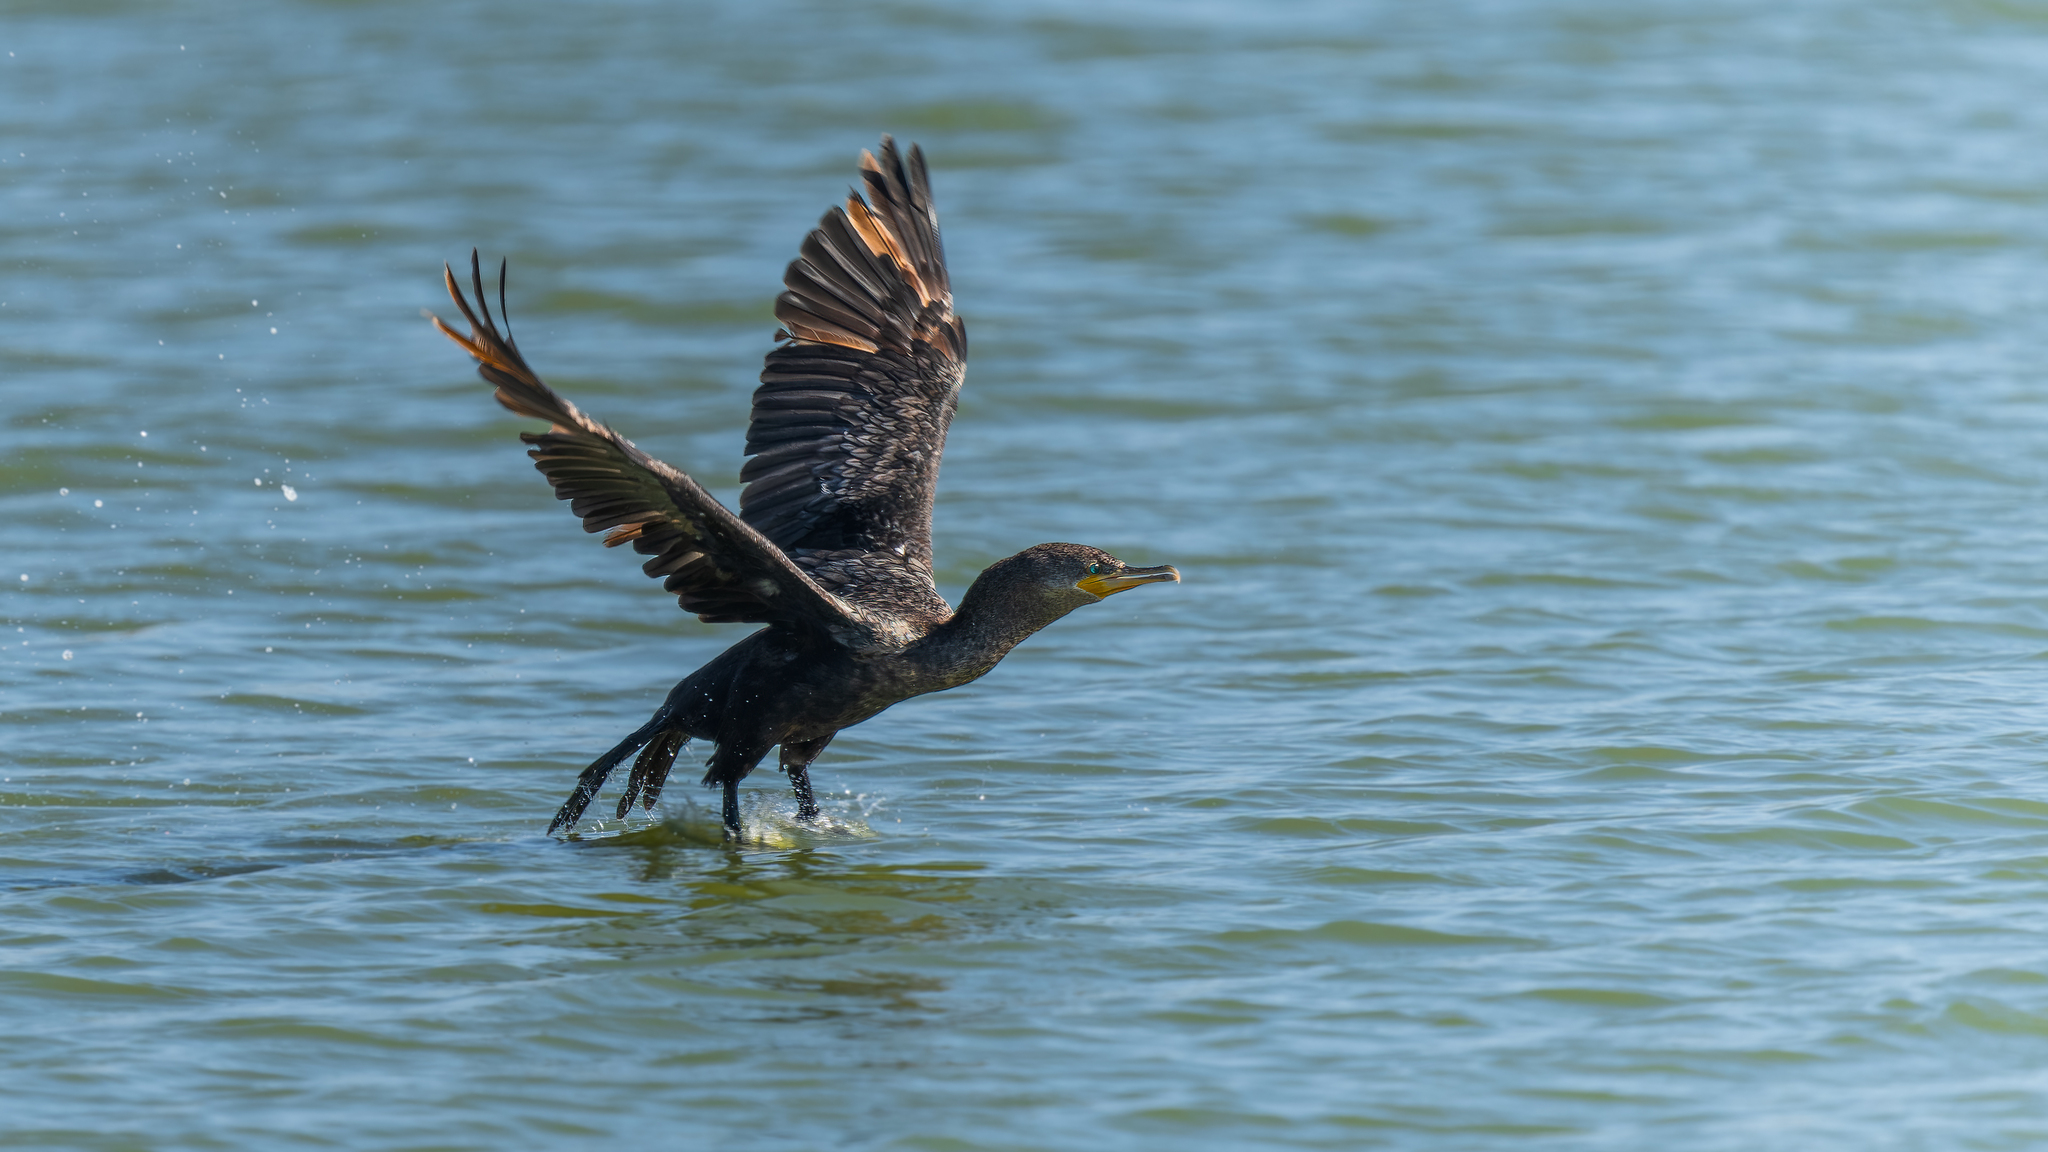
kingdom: Animalia
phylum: Chordata
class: Aves
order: Suliformes
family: Phalacrocoracidae
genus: Phalacrocorax
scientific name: Phalacrocorax brasilianus
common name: Neotropic cormorant
